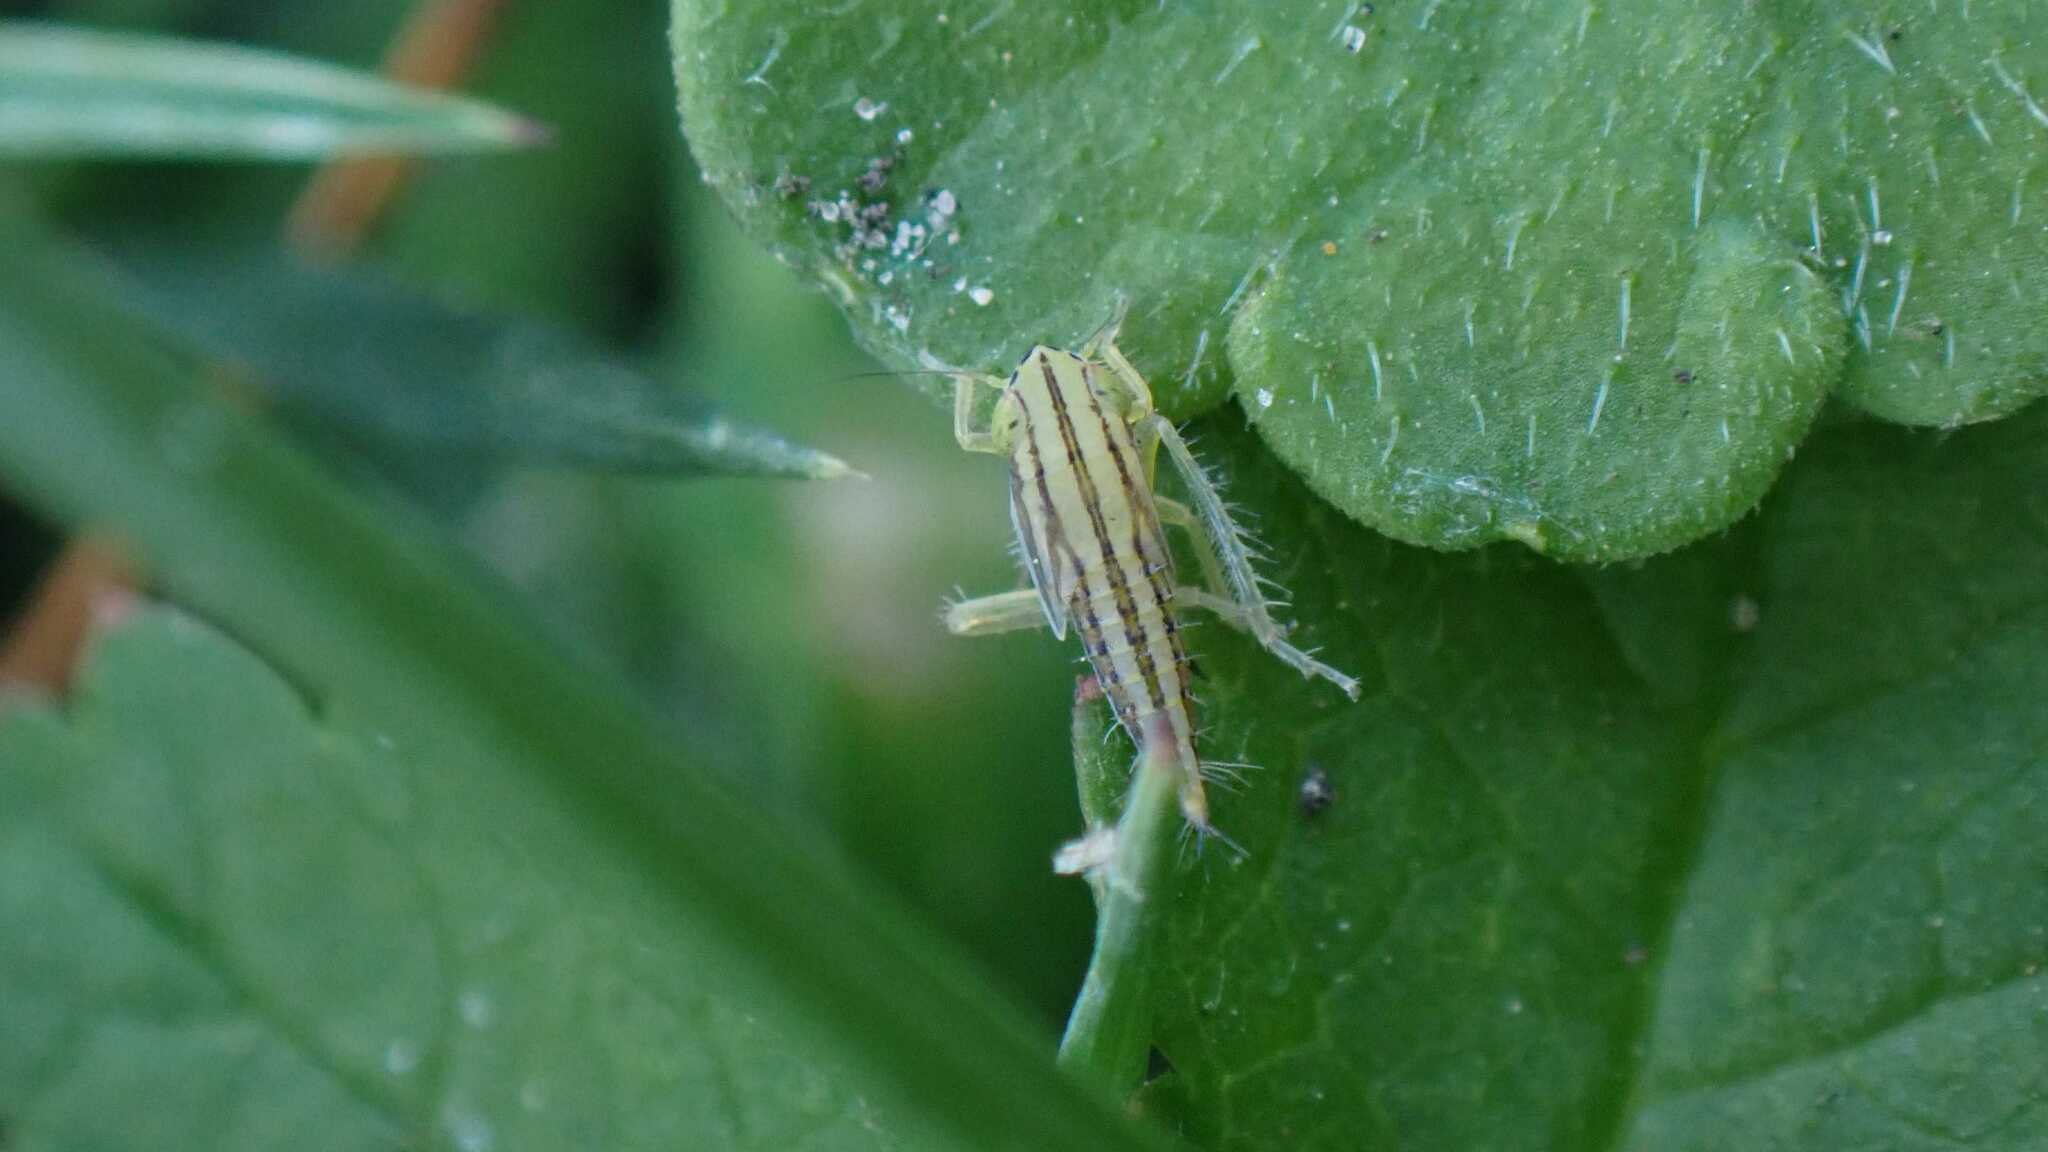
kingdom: Animalia
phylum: Arthropoda
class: Insecta
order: Hemiptera
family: Cicadellidae
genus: Cicadula
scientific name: Cicadula
